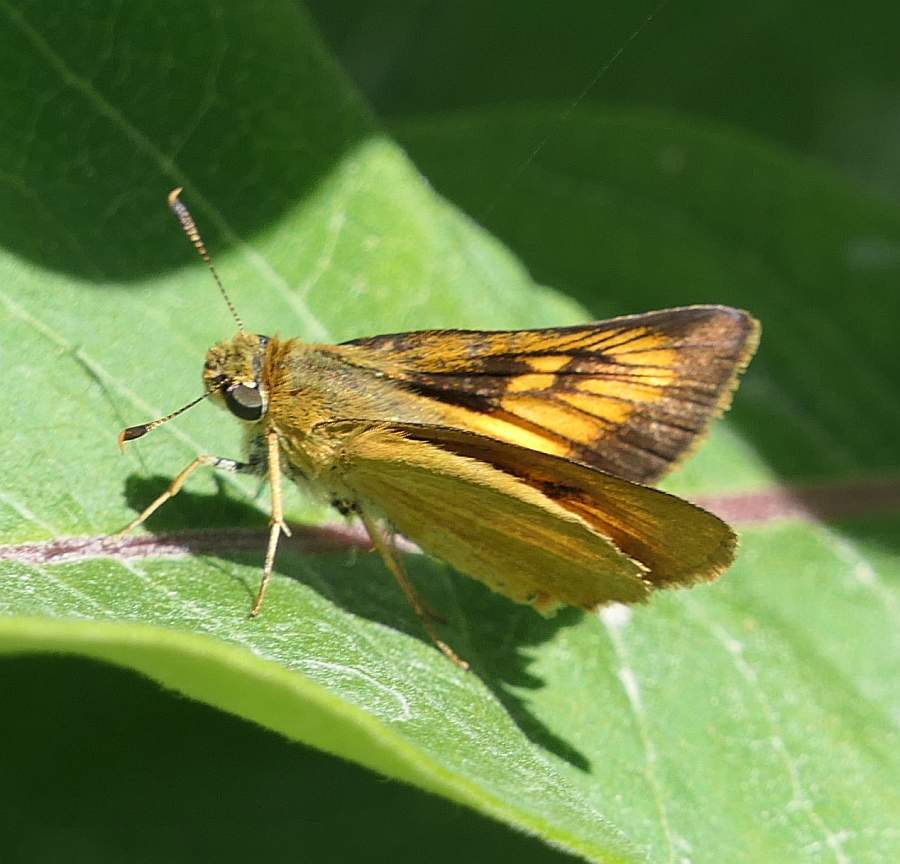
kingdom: Animalia
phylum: Arthropoda
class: Insecta
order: Lepidoptera
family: Hesperiidae
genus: Atrytone
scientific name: Atrytone delaware
